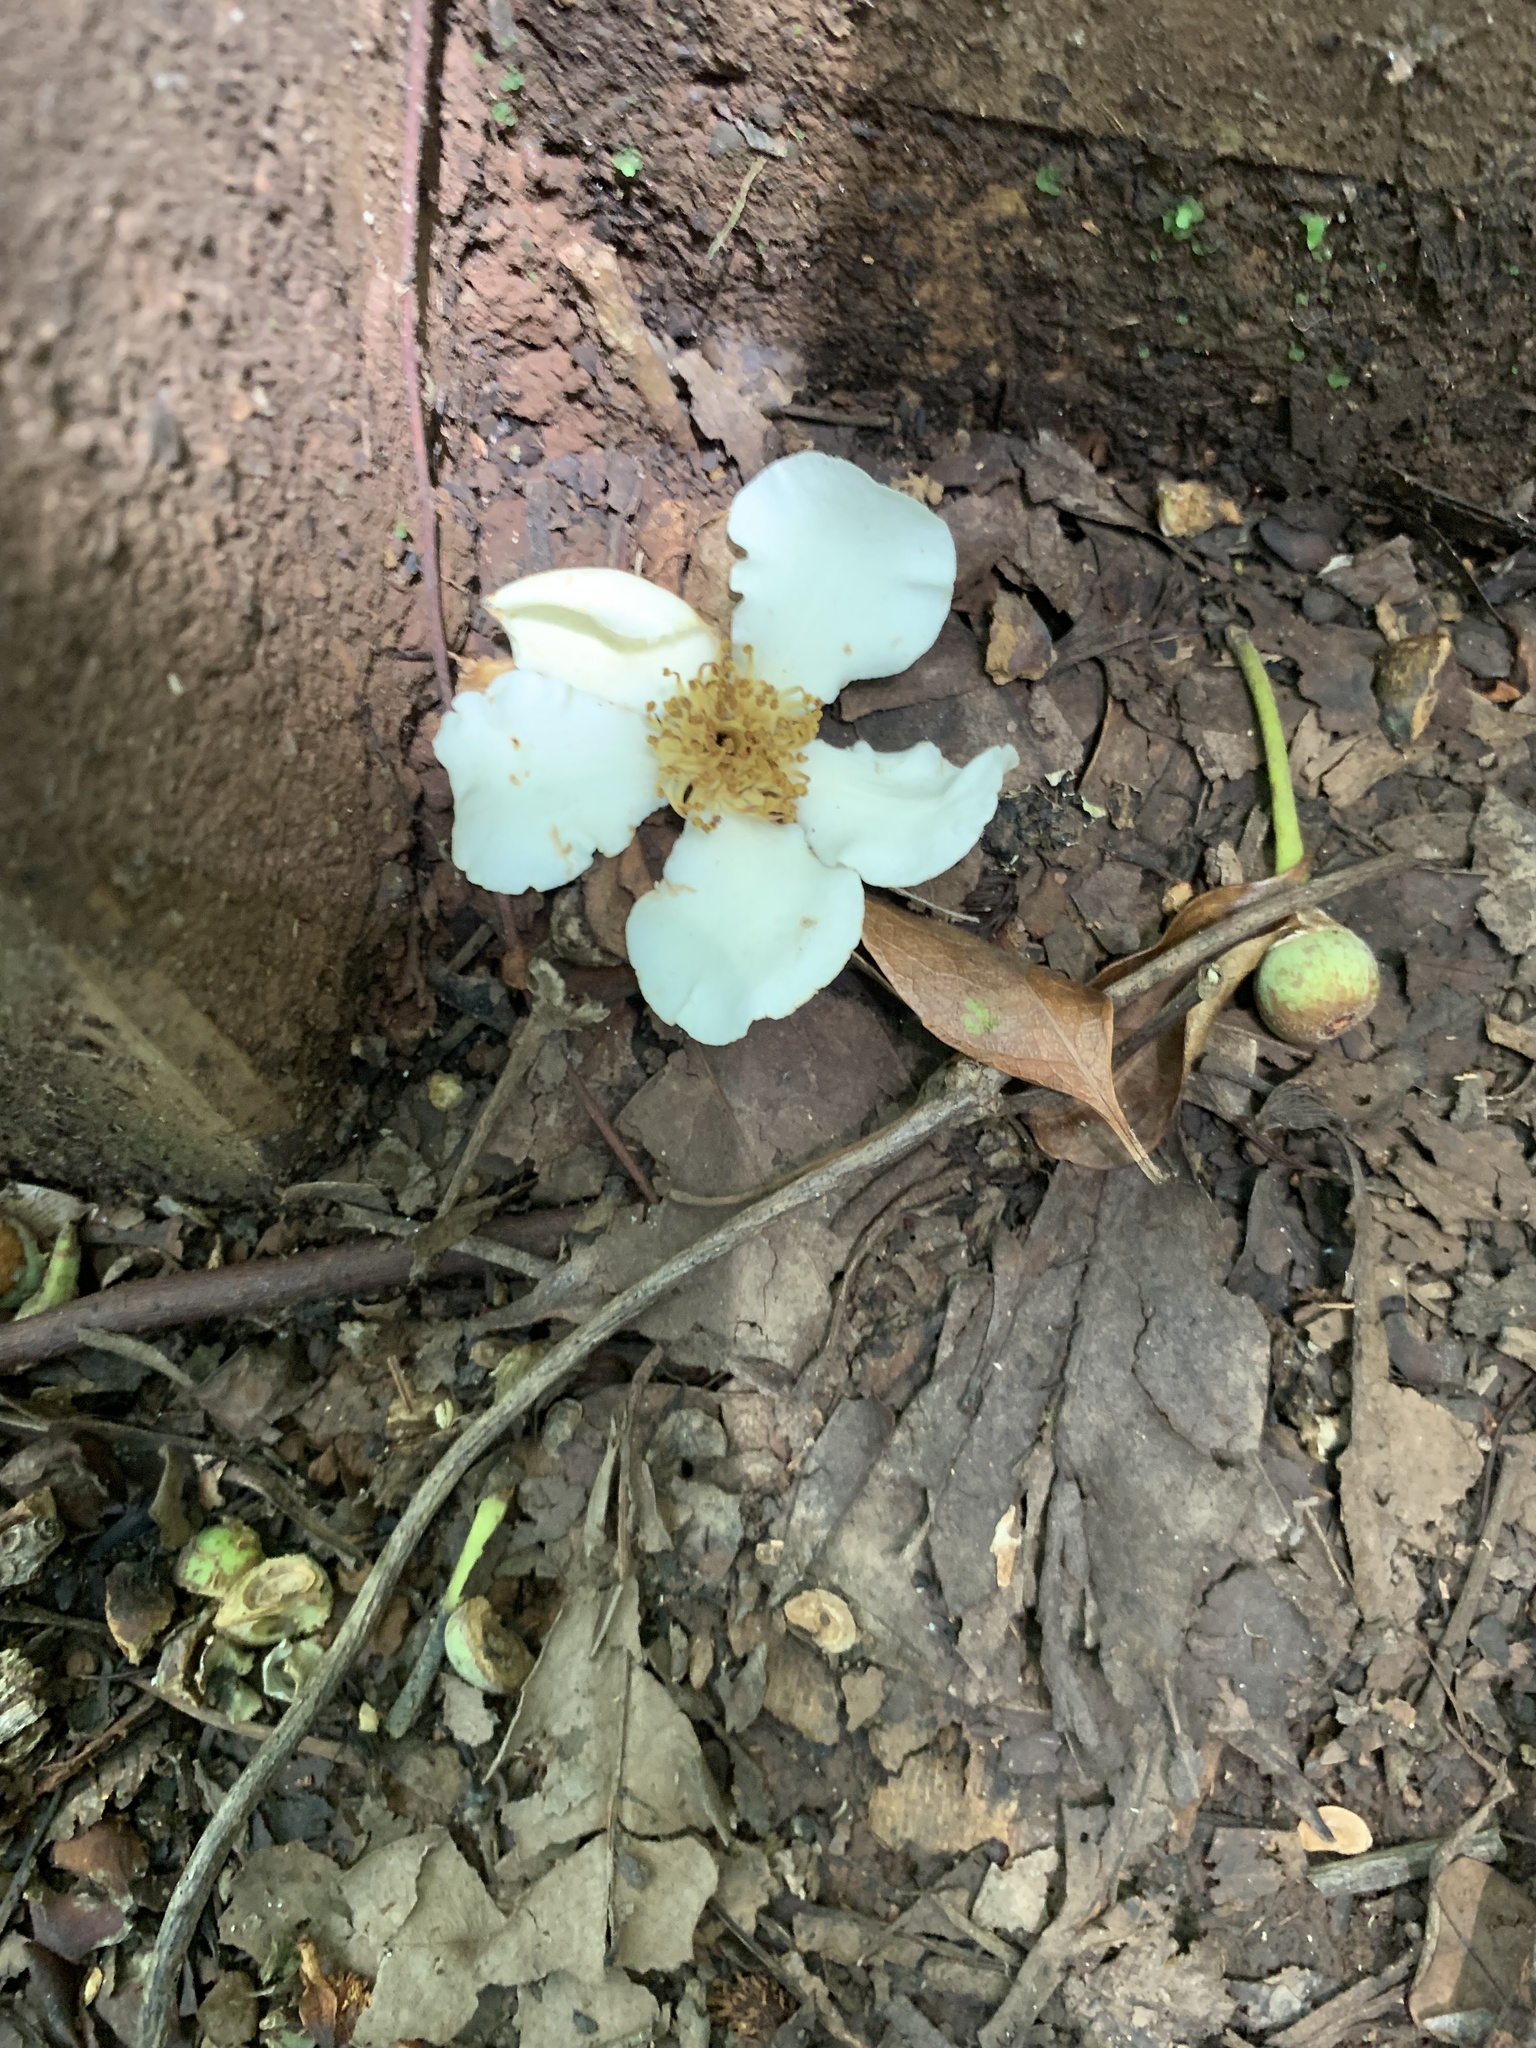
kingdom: Plantae
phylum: Tracheophyta
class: Magnoliopsida
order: Ericales
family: Theaceae
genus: Schima
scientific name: Schima mertensiana
